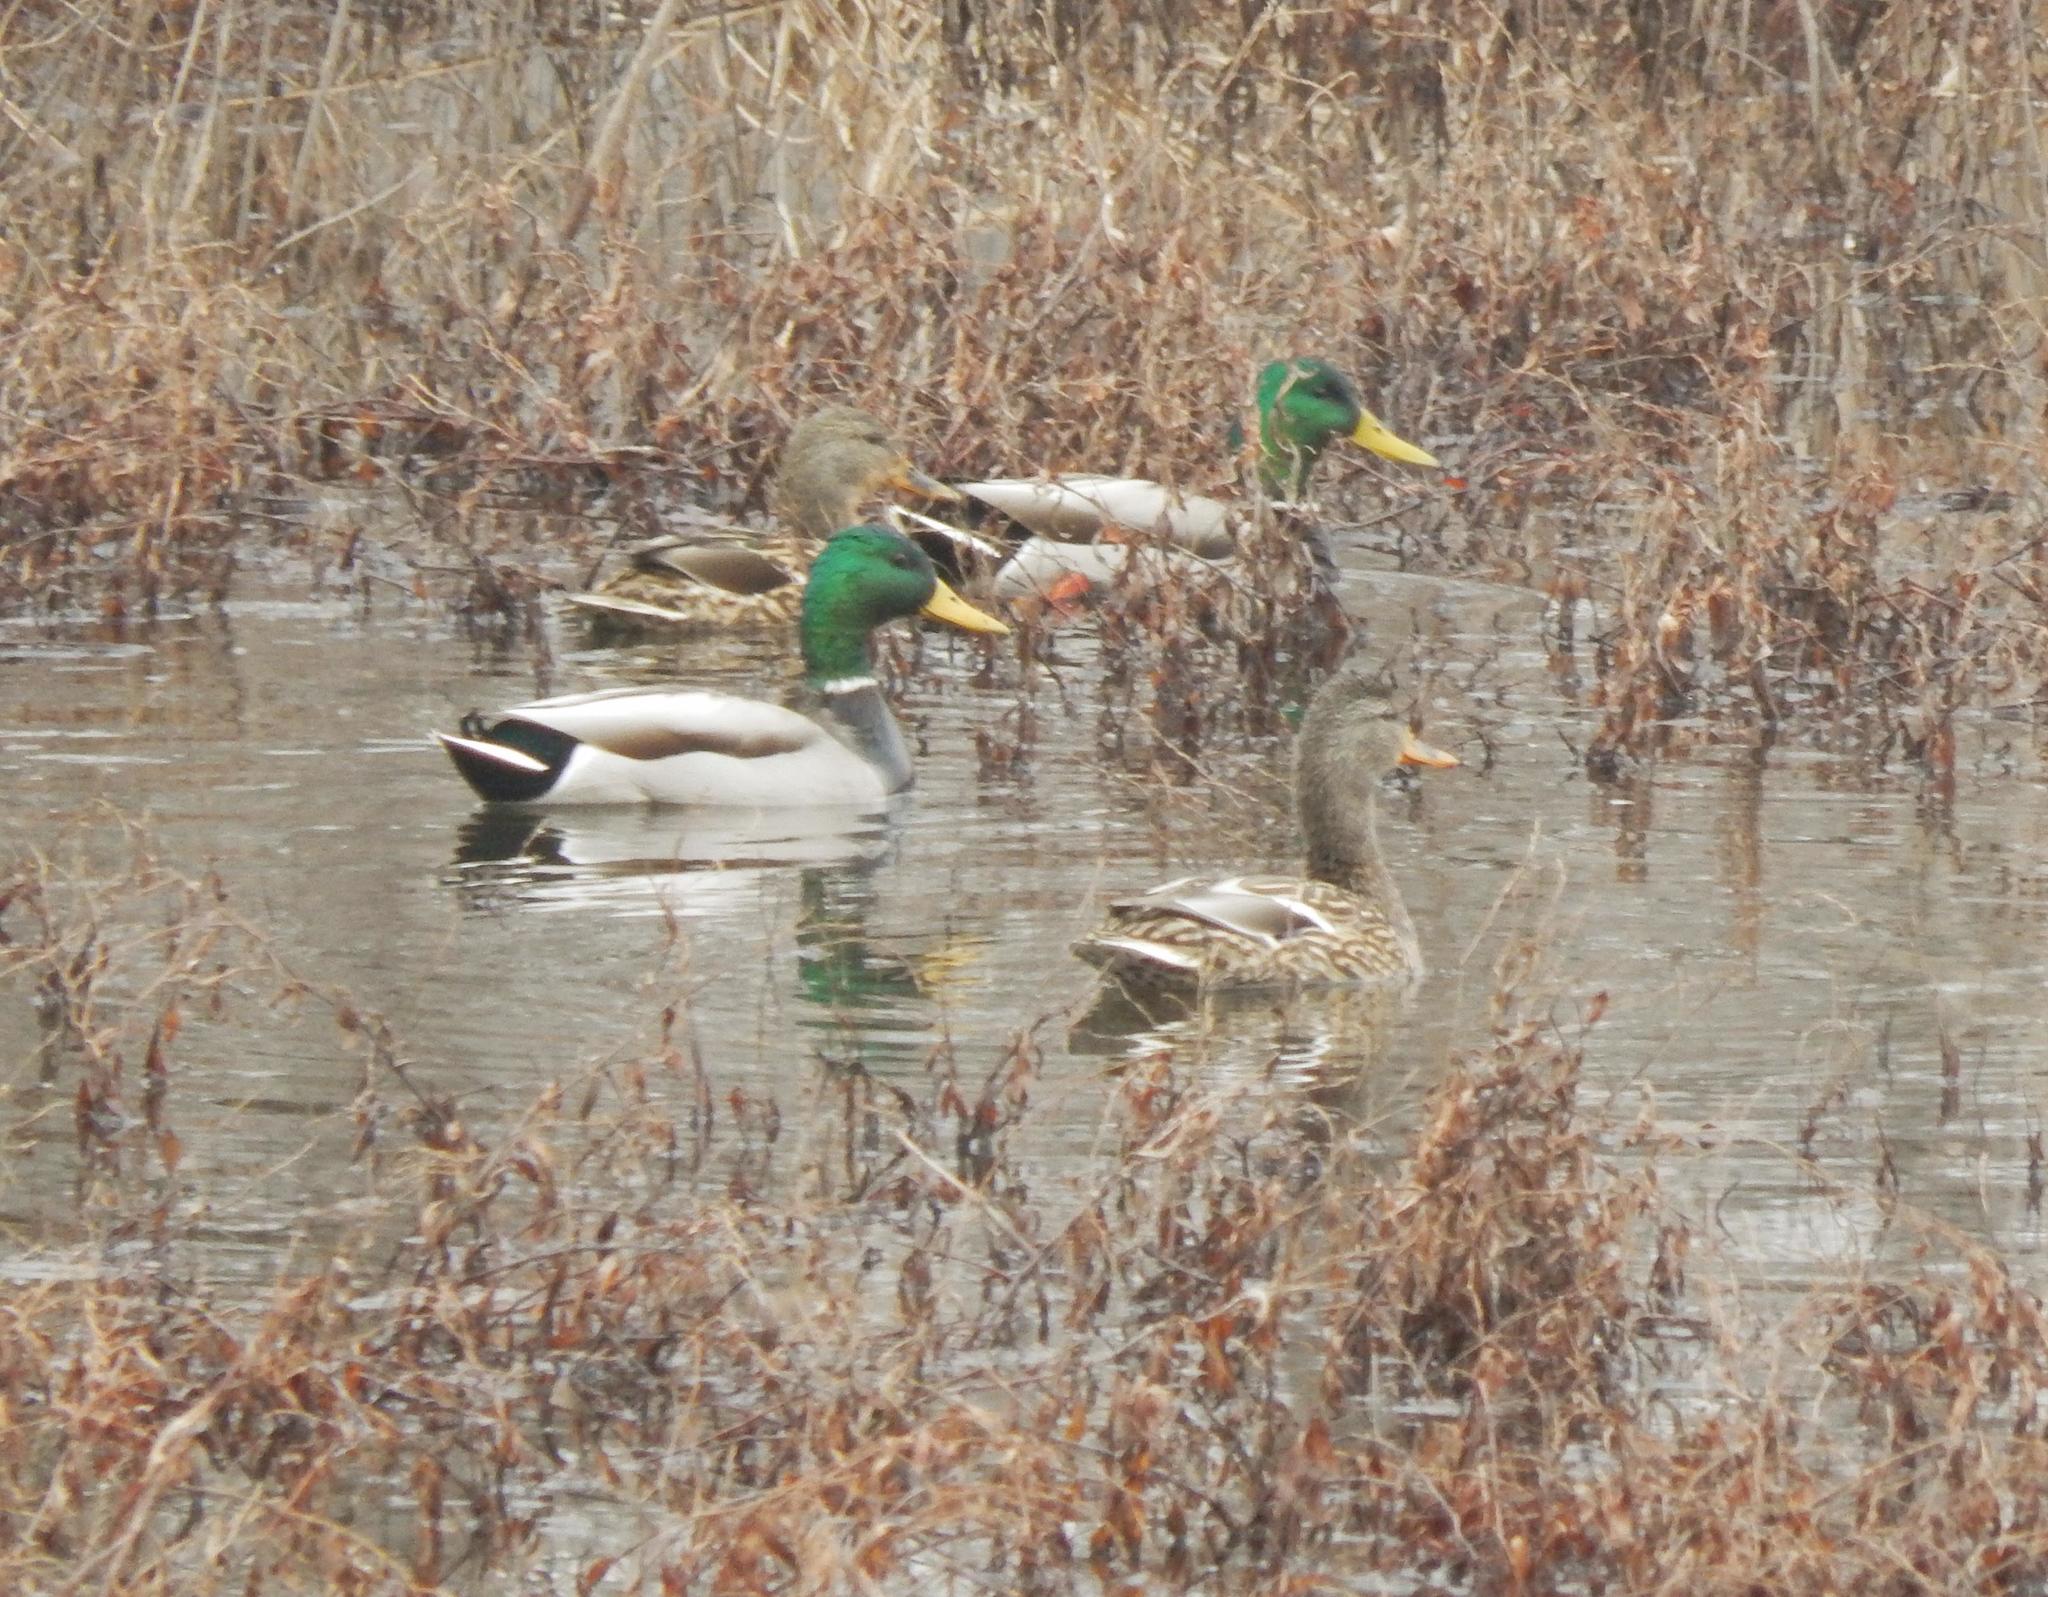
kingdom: Animalia
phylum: Chordata
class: Aves
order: Anseriformes
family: Anatidae
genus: Anas
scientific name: Anas platyrhynchos
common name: Mallard
